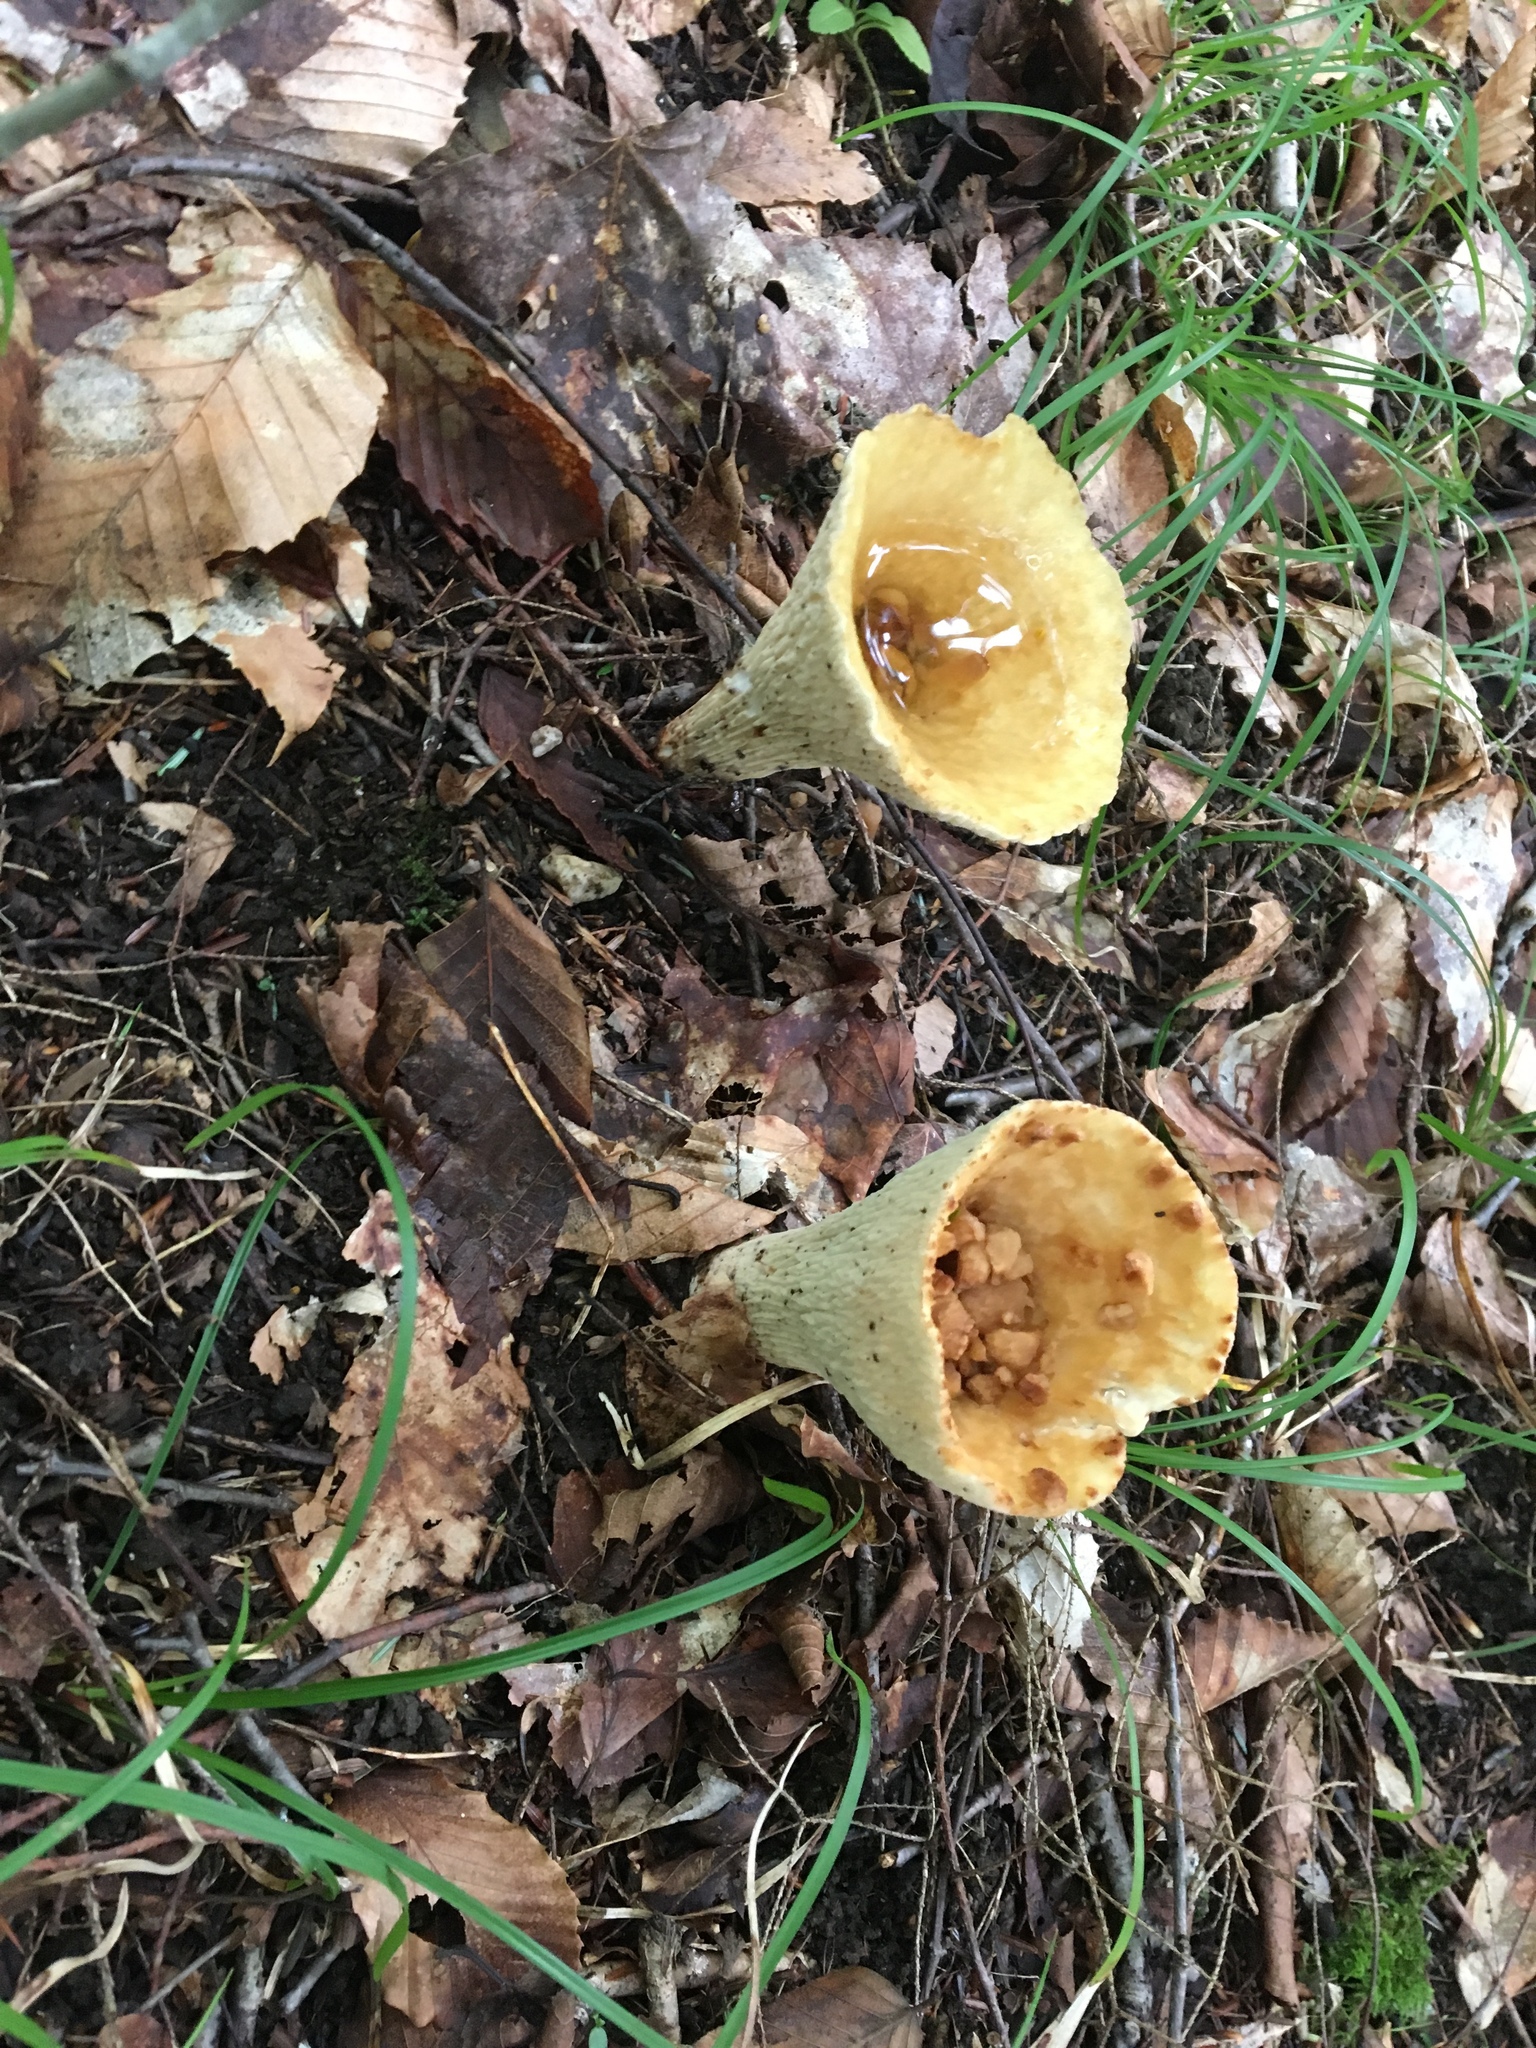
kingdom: Fungi
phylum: Basidiomycota
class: Agaricomycetes
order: Gomphales
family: Gomphaceae
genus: Turbinellus
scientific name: Turbinellus floccosus
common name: Scaly chanterelle
